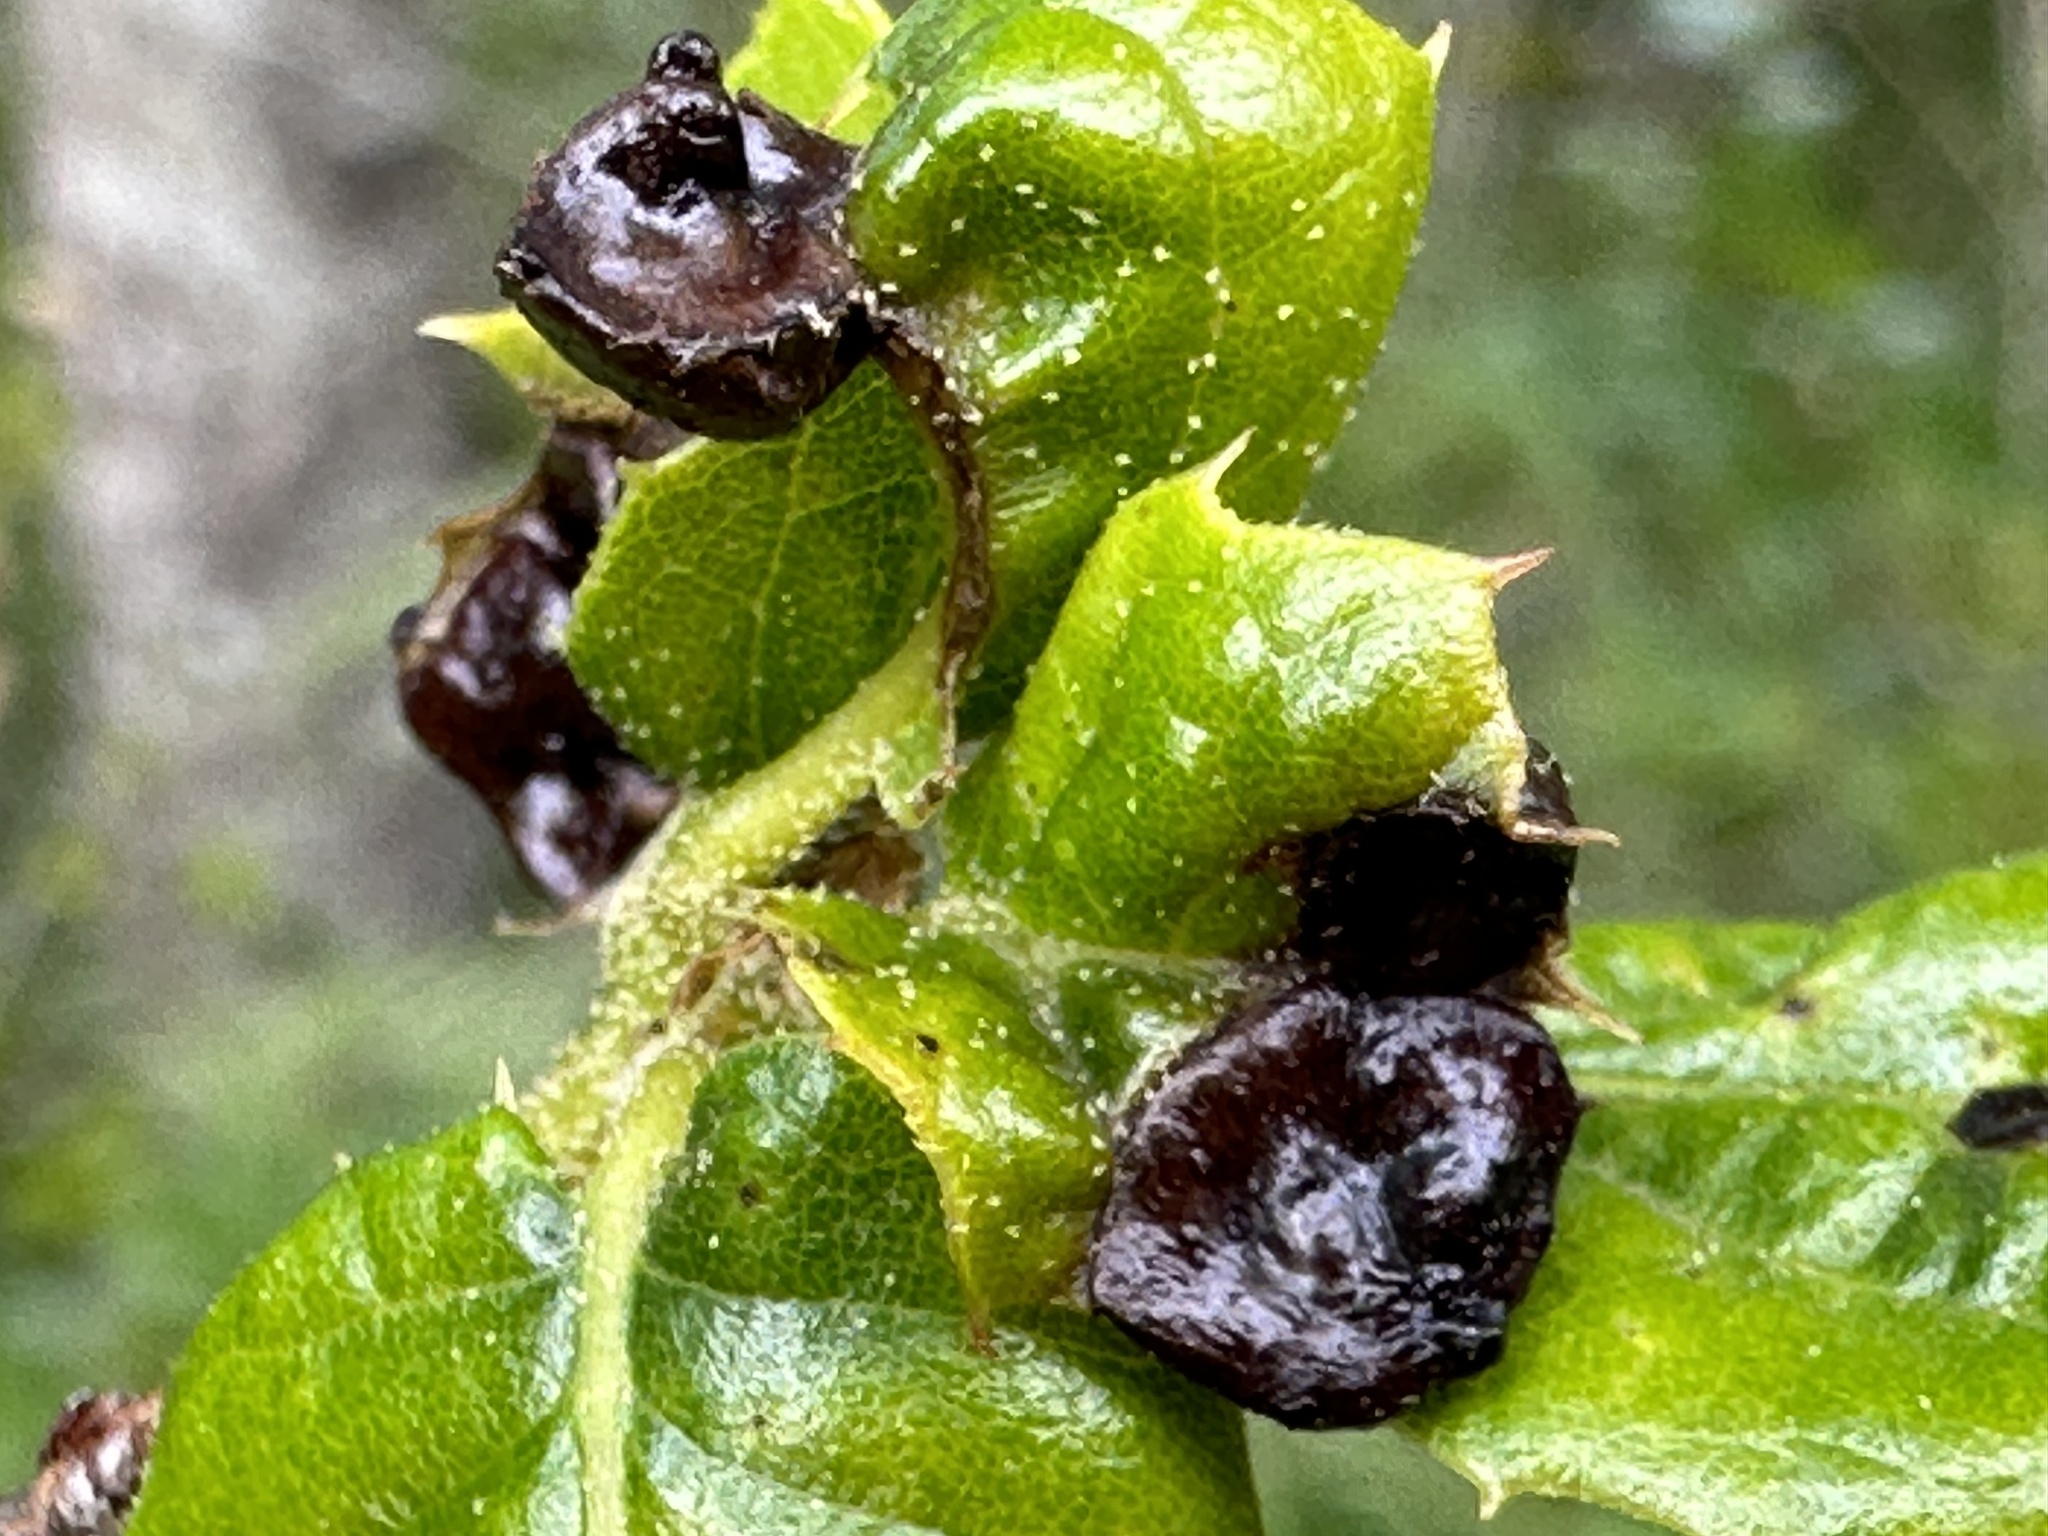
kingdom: Animalia
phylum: Arthropoda
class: Insecta
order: Hymenoptera
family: Cynipidae
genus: Dryocosmus
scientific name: Dryocosmus
